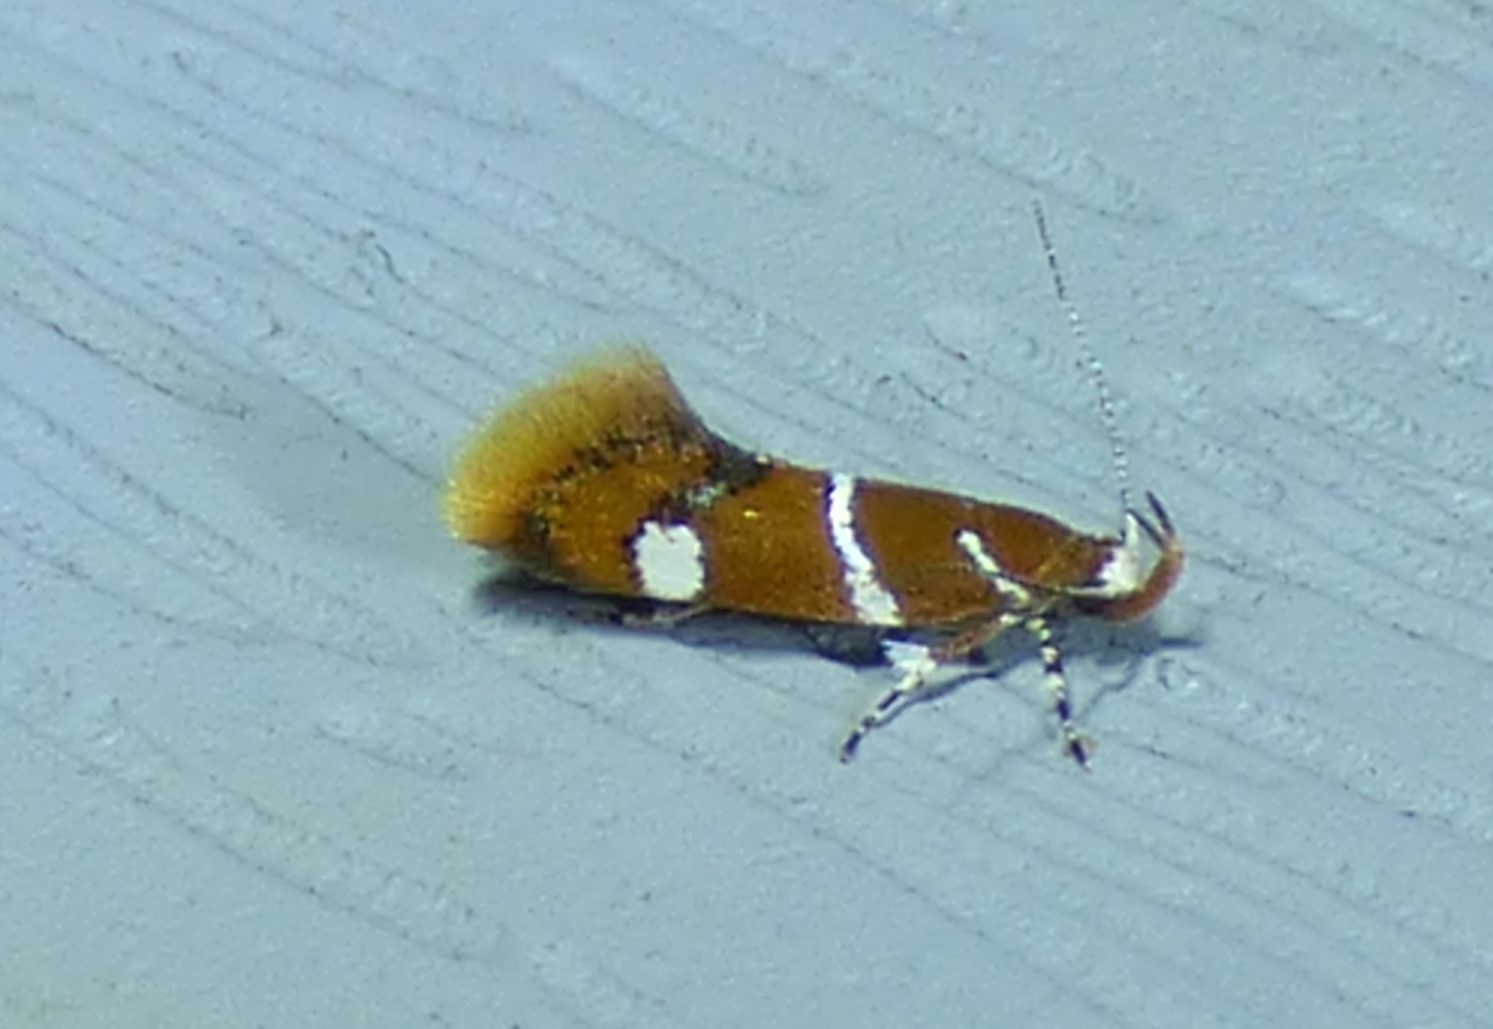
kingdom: Animalia
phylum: Arthropoda
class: Insecta
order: Lepidoptera
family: Oecophoridae
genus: Promalactis
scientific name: Promalactis suzukiella
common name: Moth
